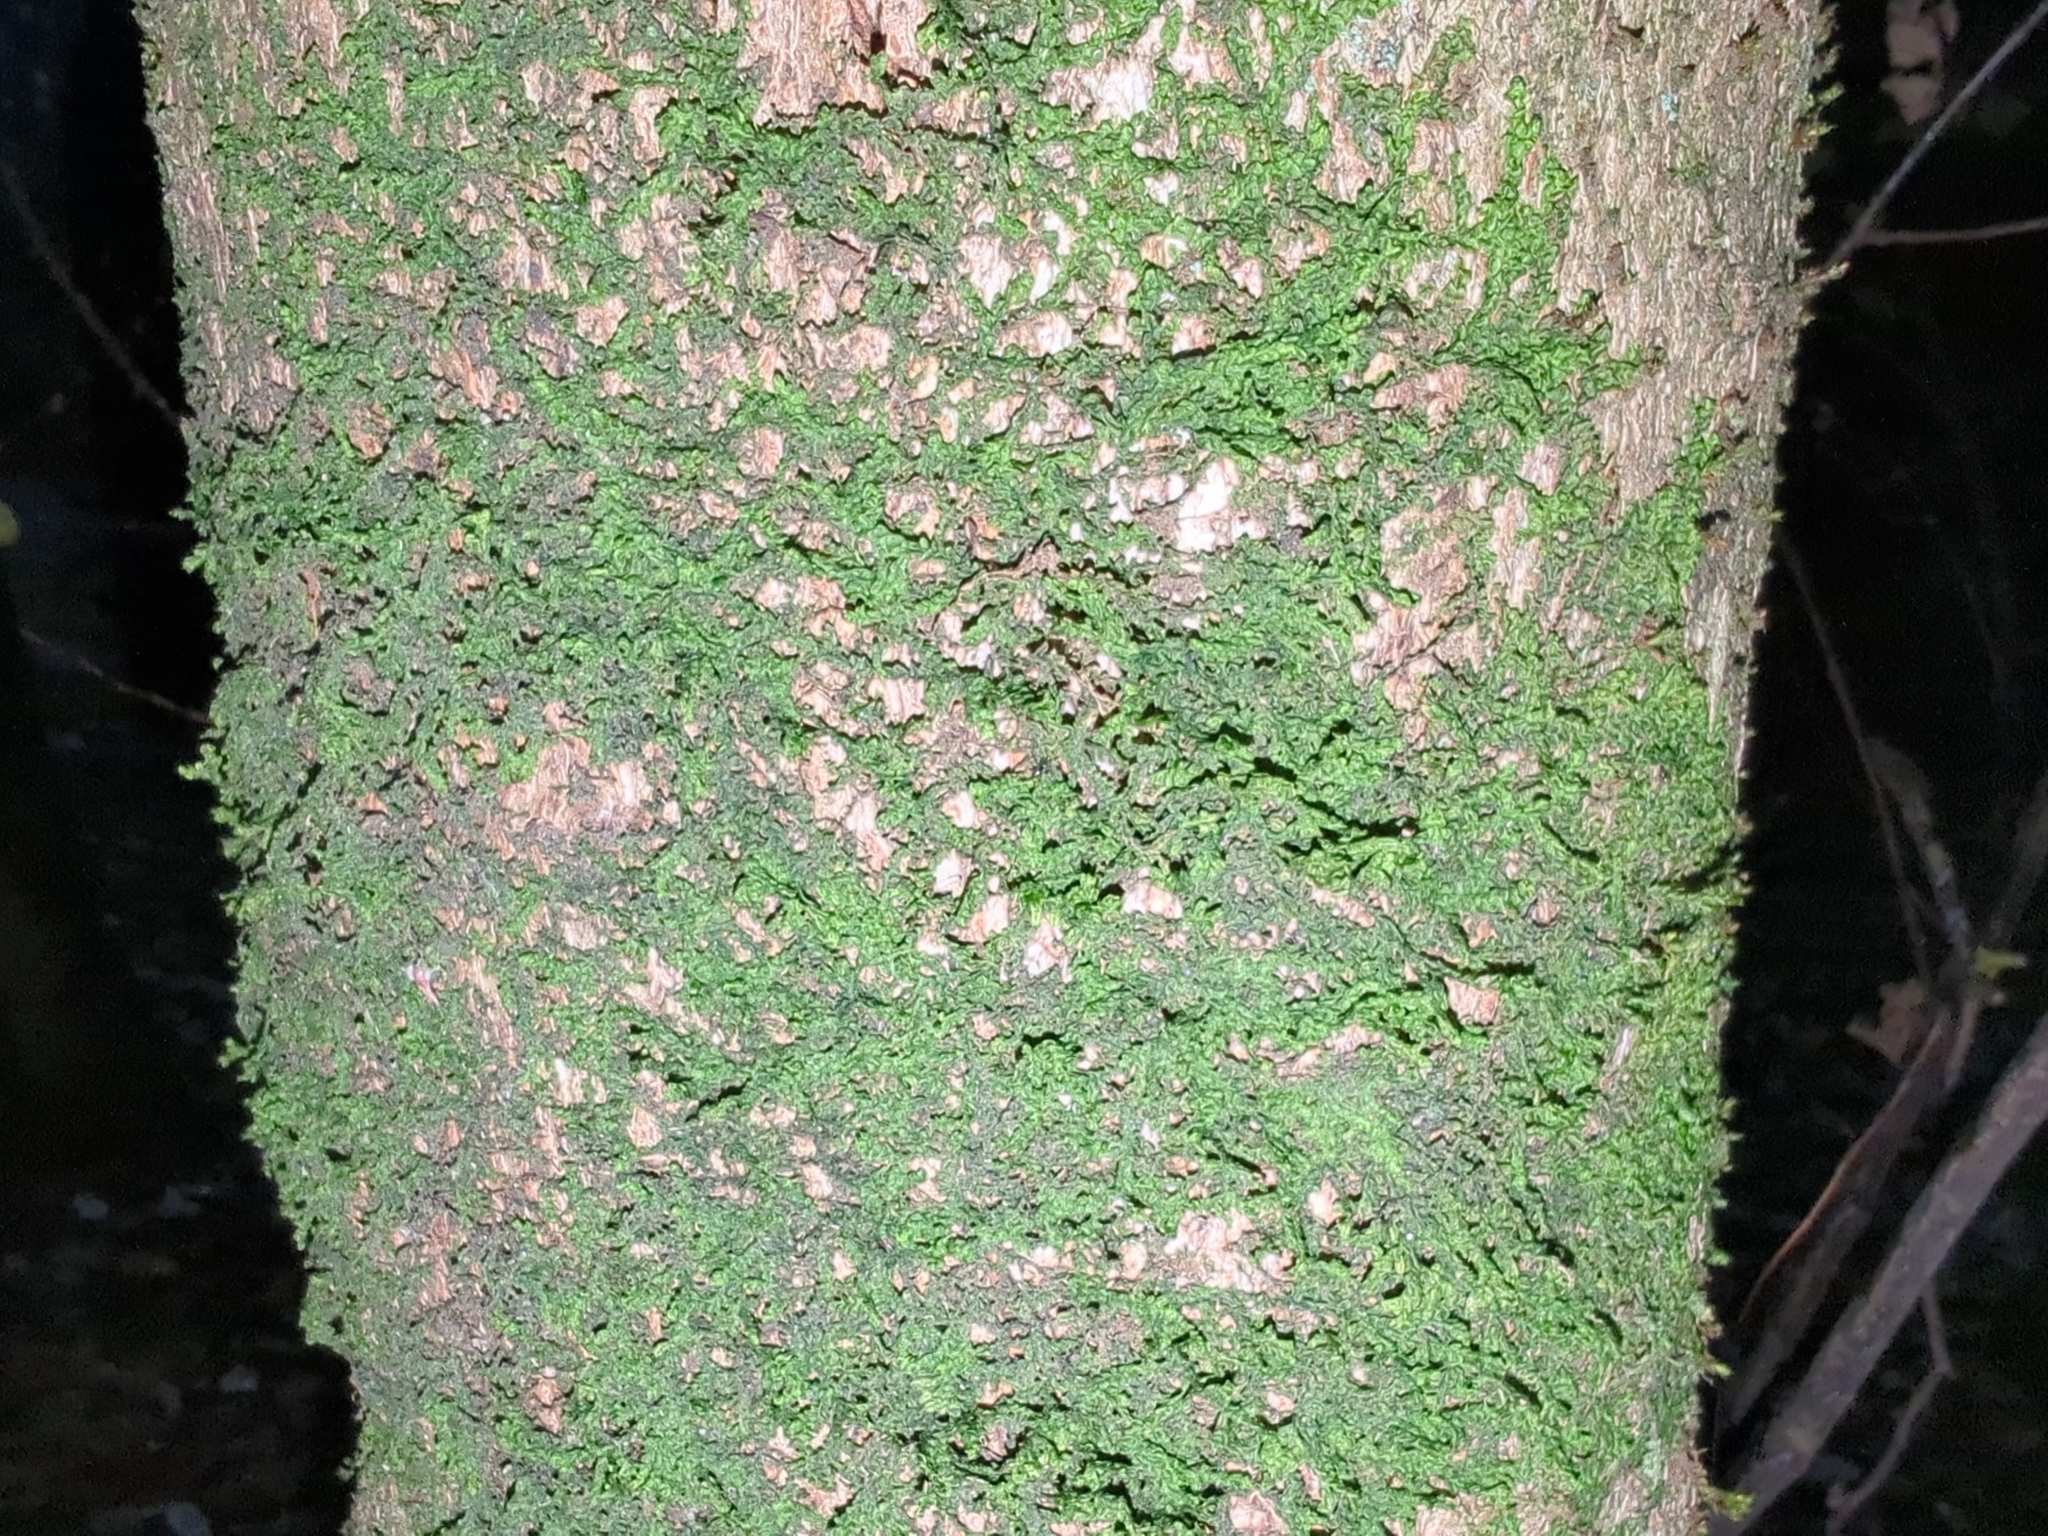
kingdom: Plantae
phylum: Marchantiophyta
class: Jungermanniopsida
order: Porellales
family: Porellaceae
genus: Porella
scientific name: Porella platyphylla
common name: Wall scalewort
